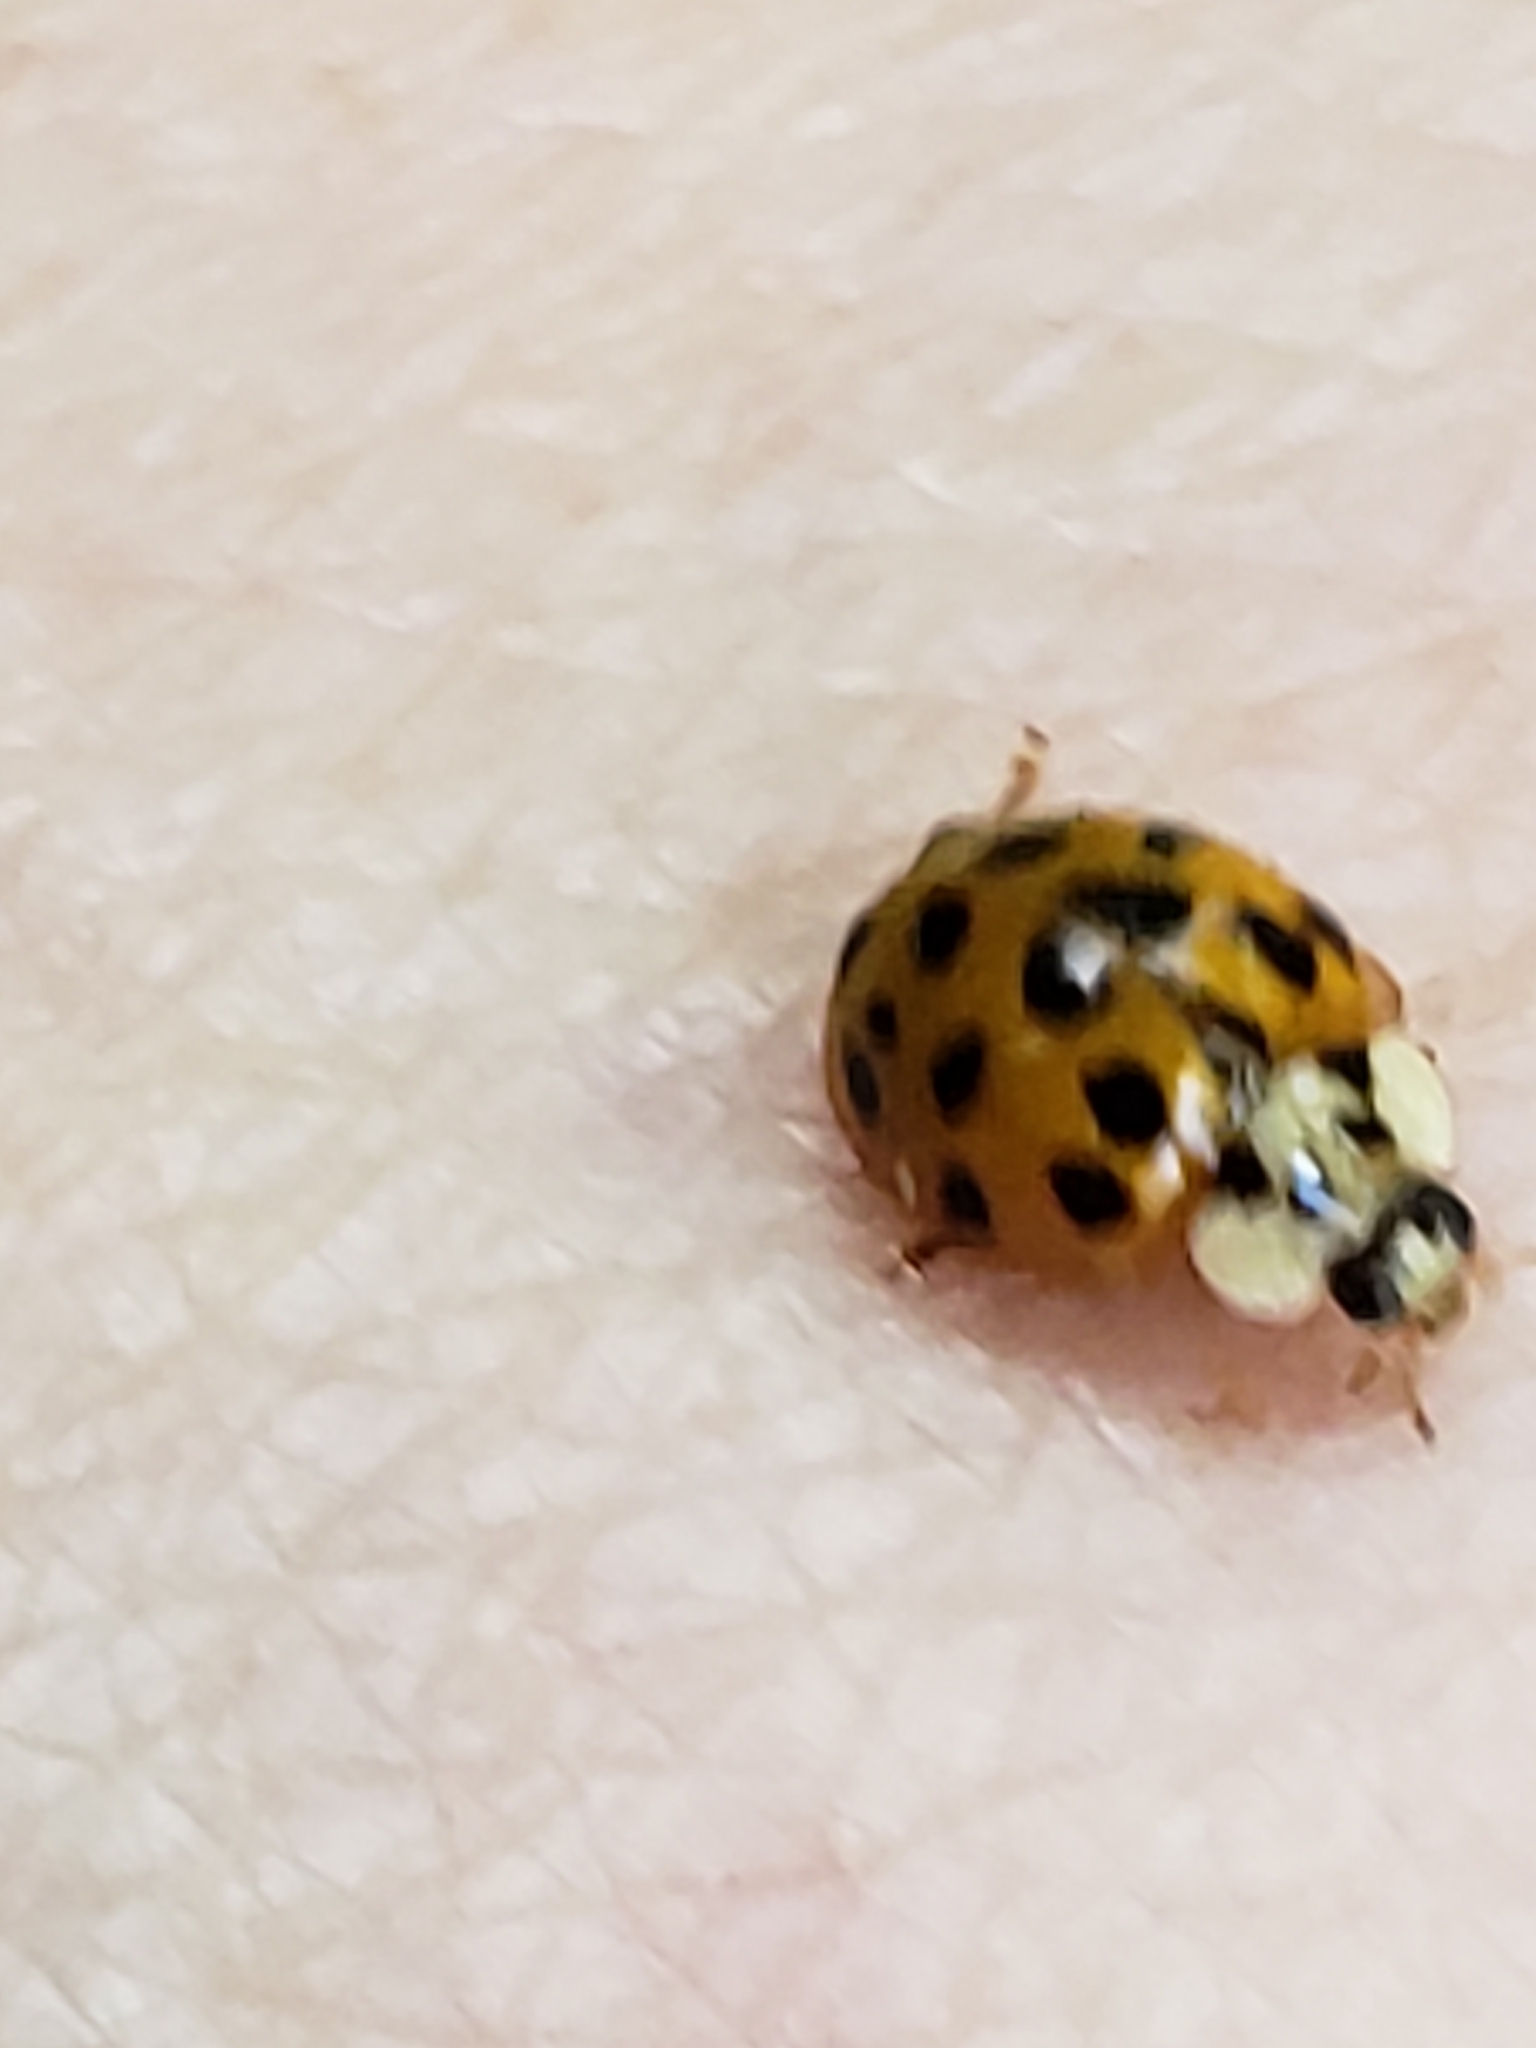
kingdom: Animalia
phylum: Arthropoda
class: Insecta
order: Coleoptera
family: Coccinellidae
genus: Harmonia
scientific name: Harmonia axyridis
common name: Harlequin ladybird
